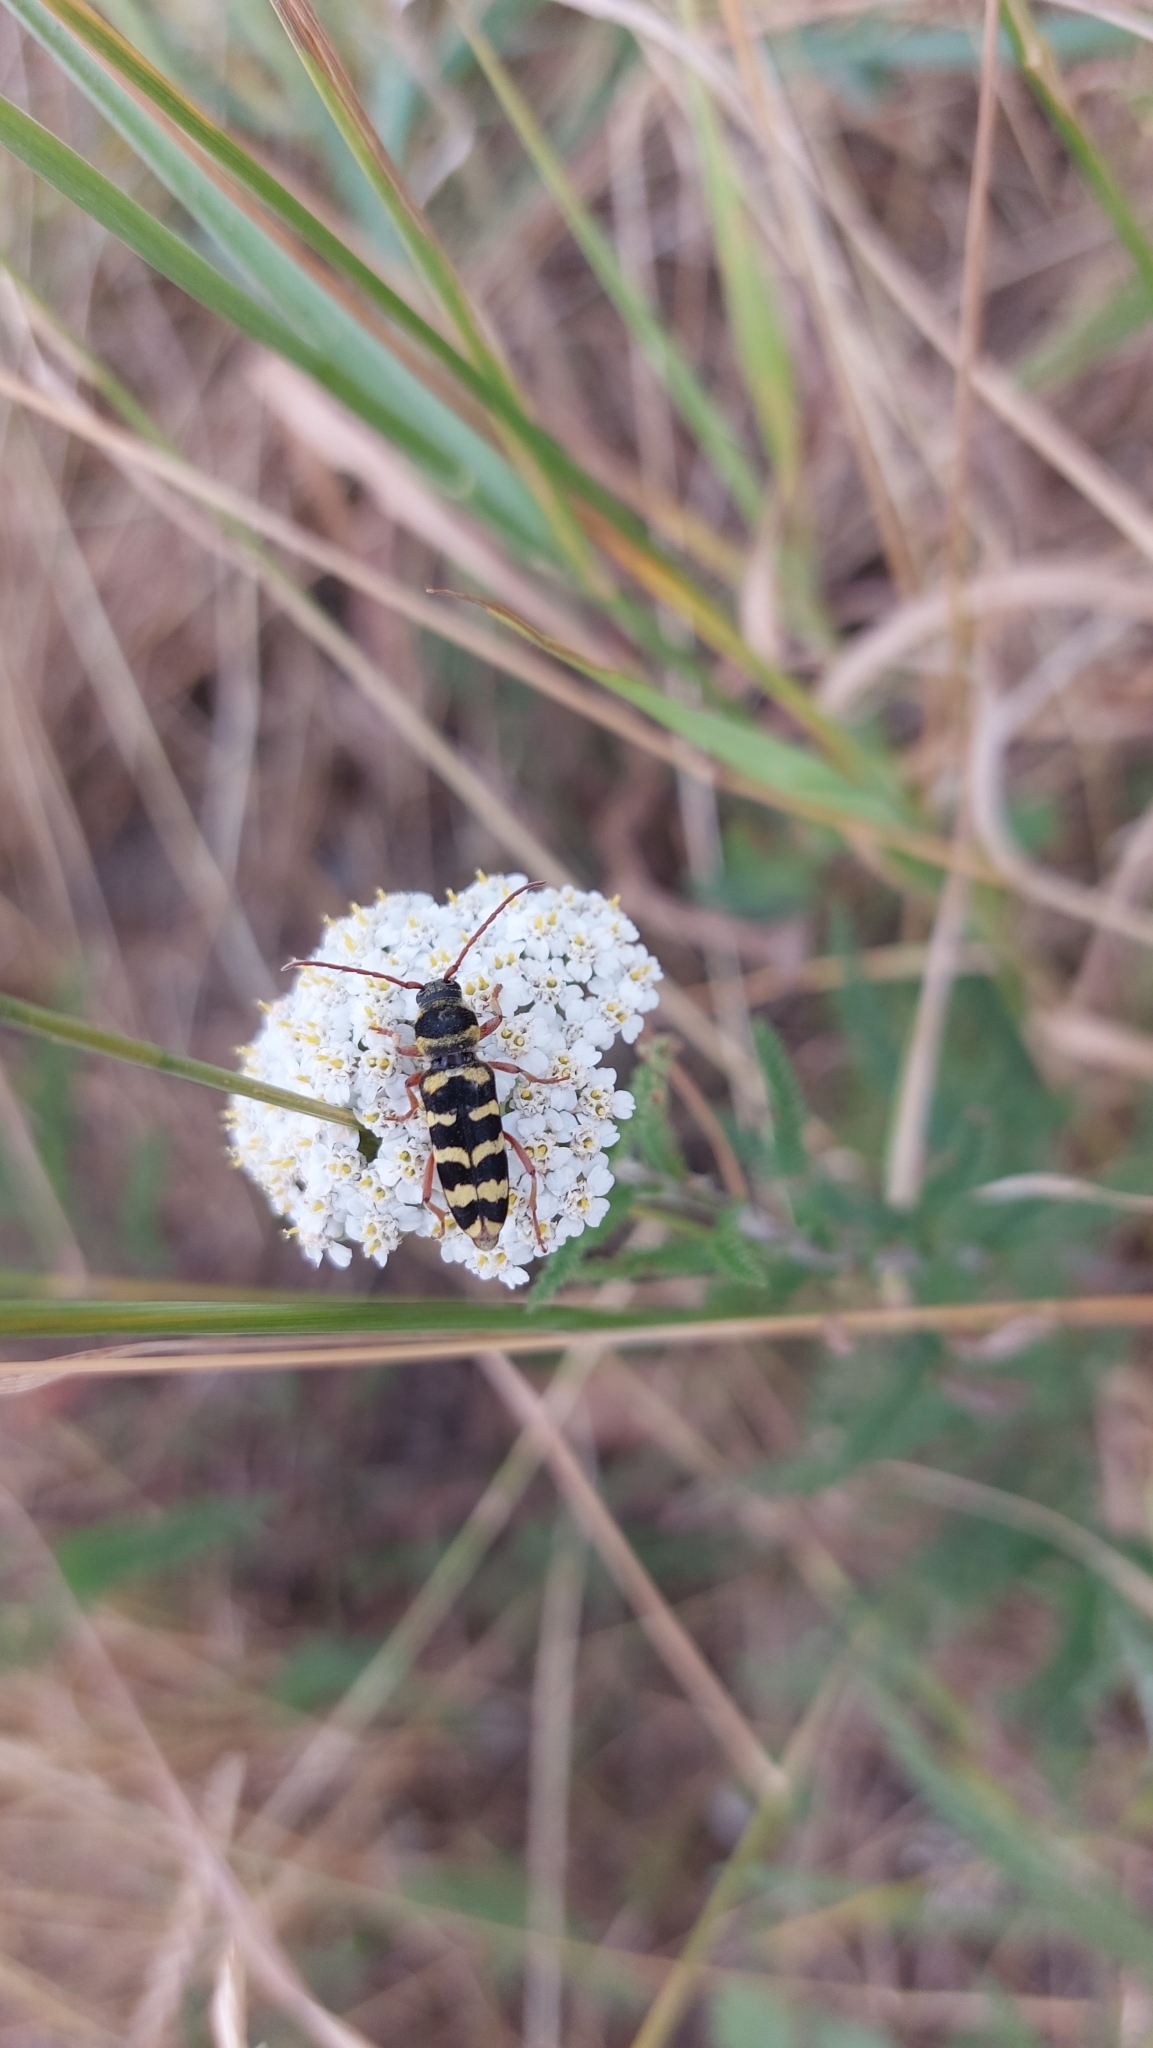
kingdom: Animalia
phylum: Arthropoda
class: Insecta
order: Coleoptera
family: Cerambycidae
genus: Plagionotus
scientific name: Plagionotus floralis
